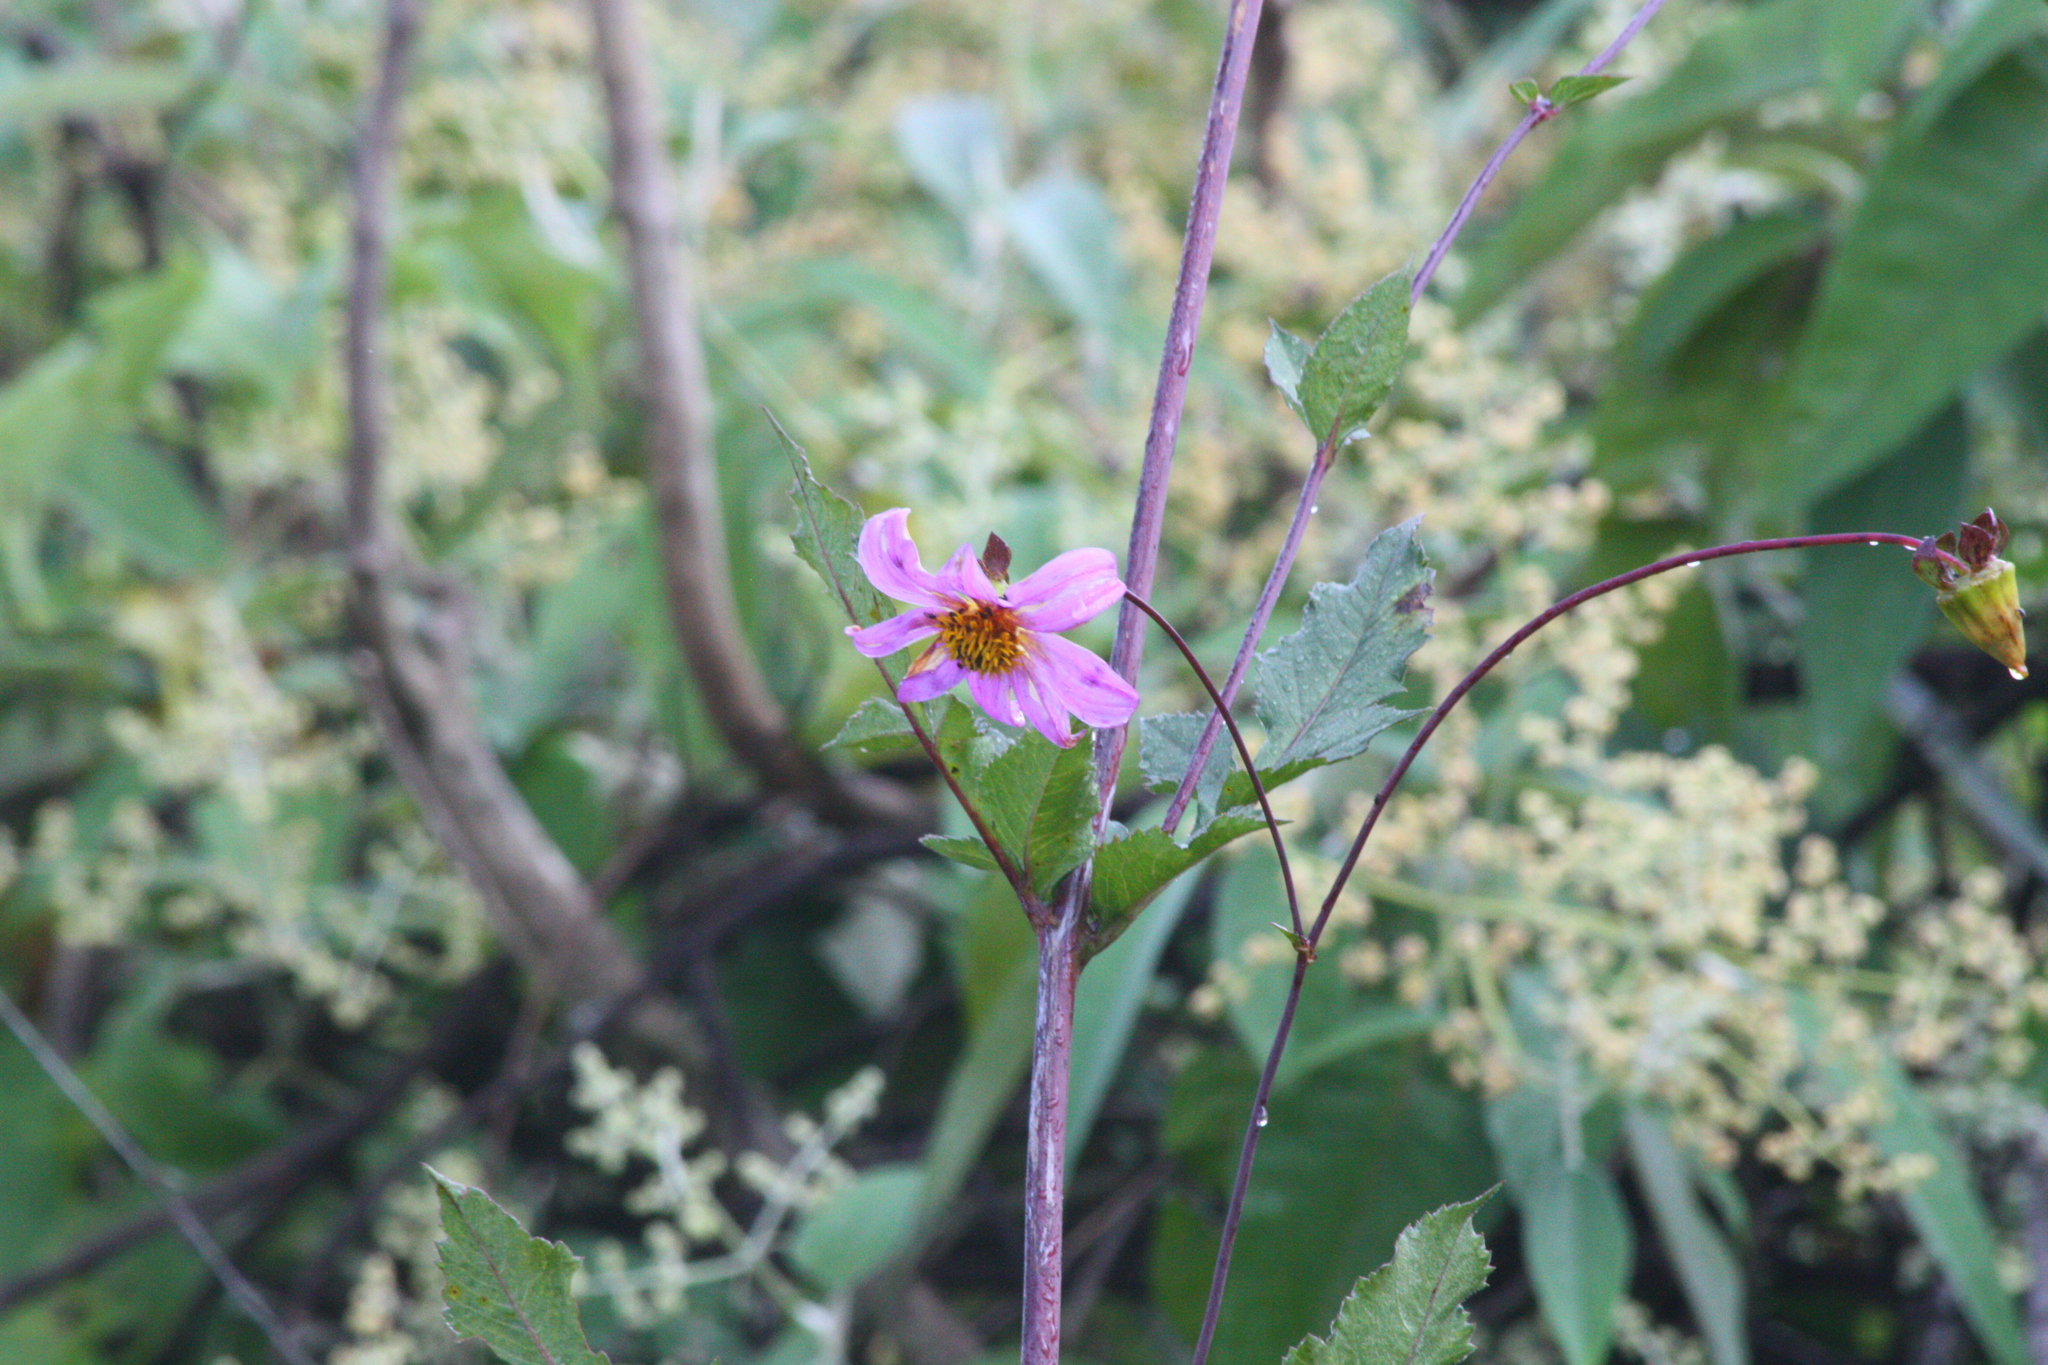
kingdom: Plantae
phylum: Tracheophyta
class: Magnoliopsida
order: Asterales
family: Asteraceae
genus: Dahlia
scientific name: Dahlia sorensenii
